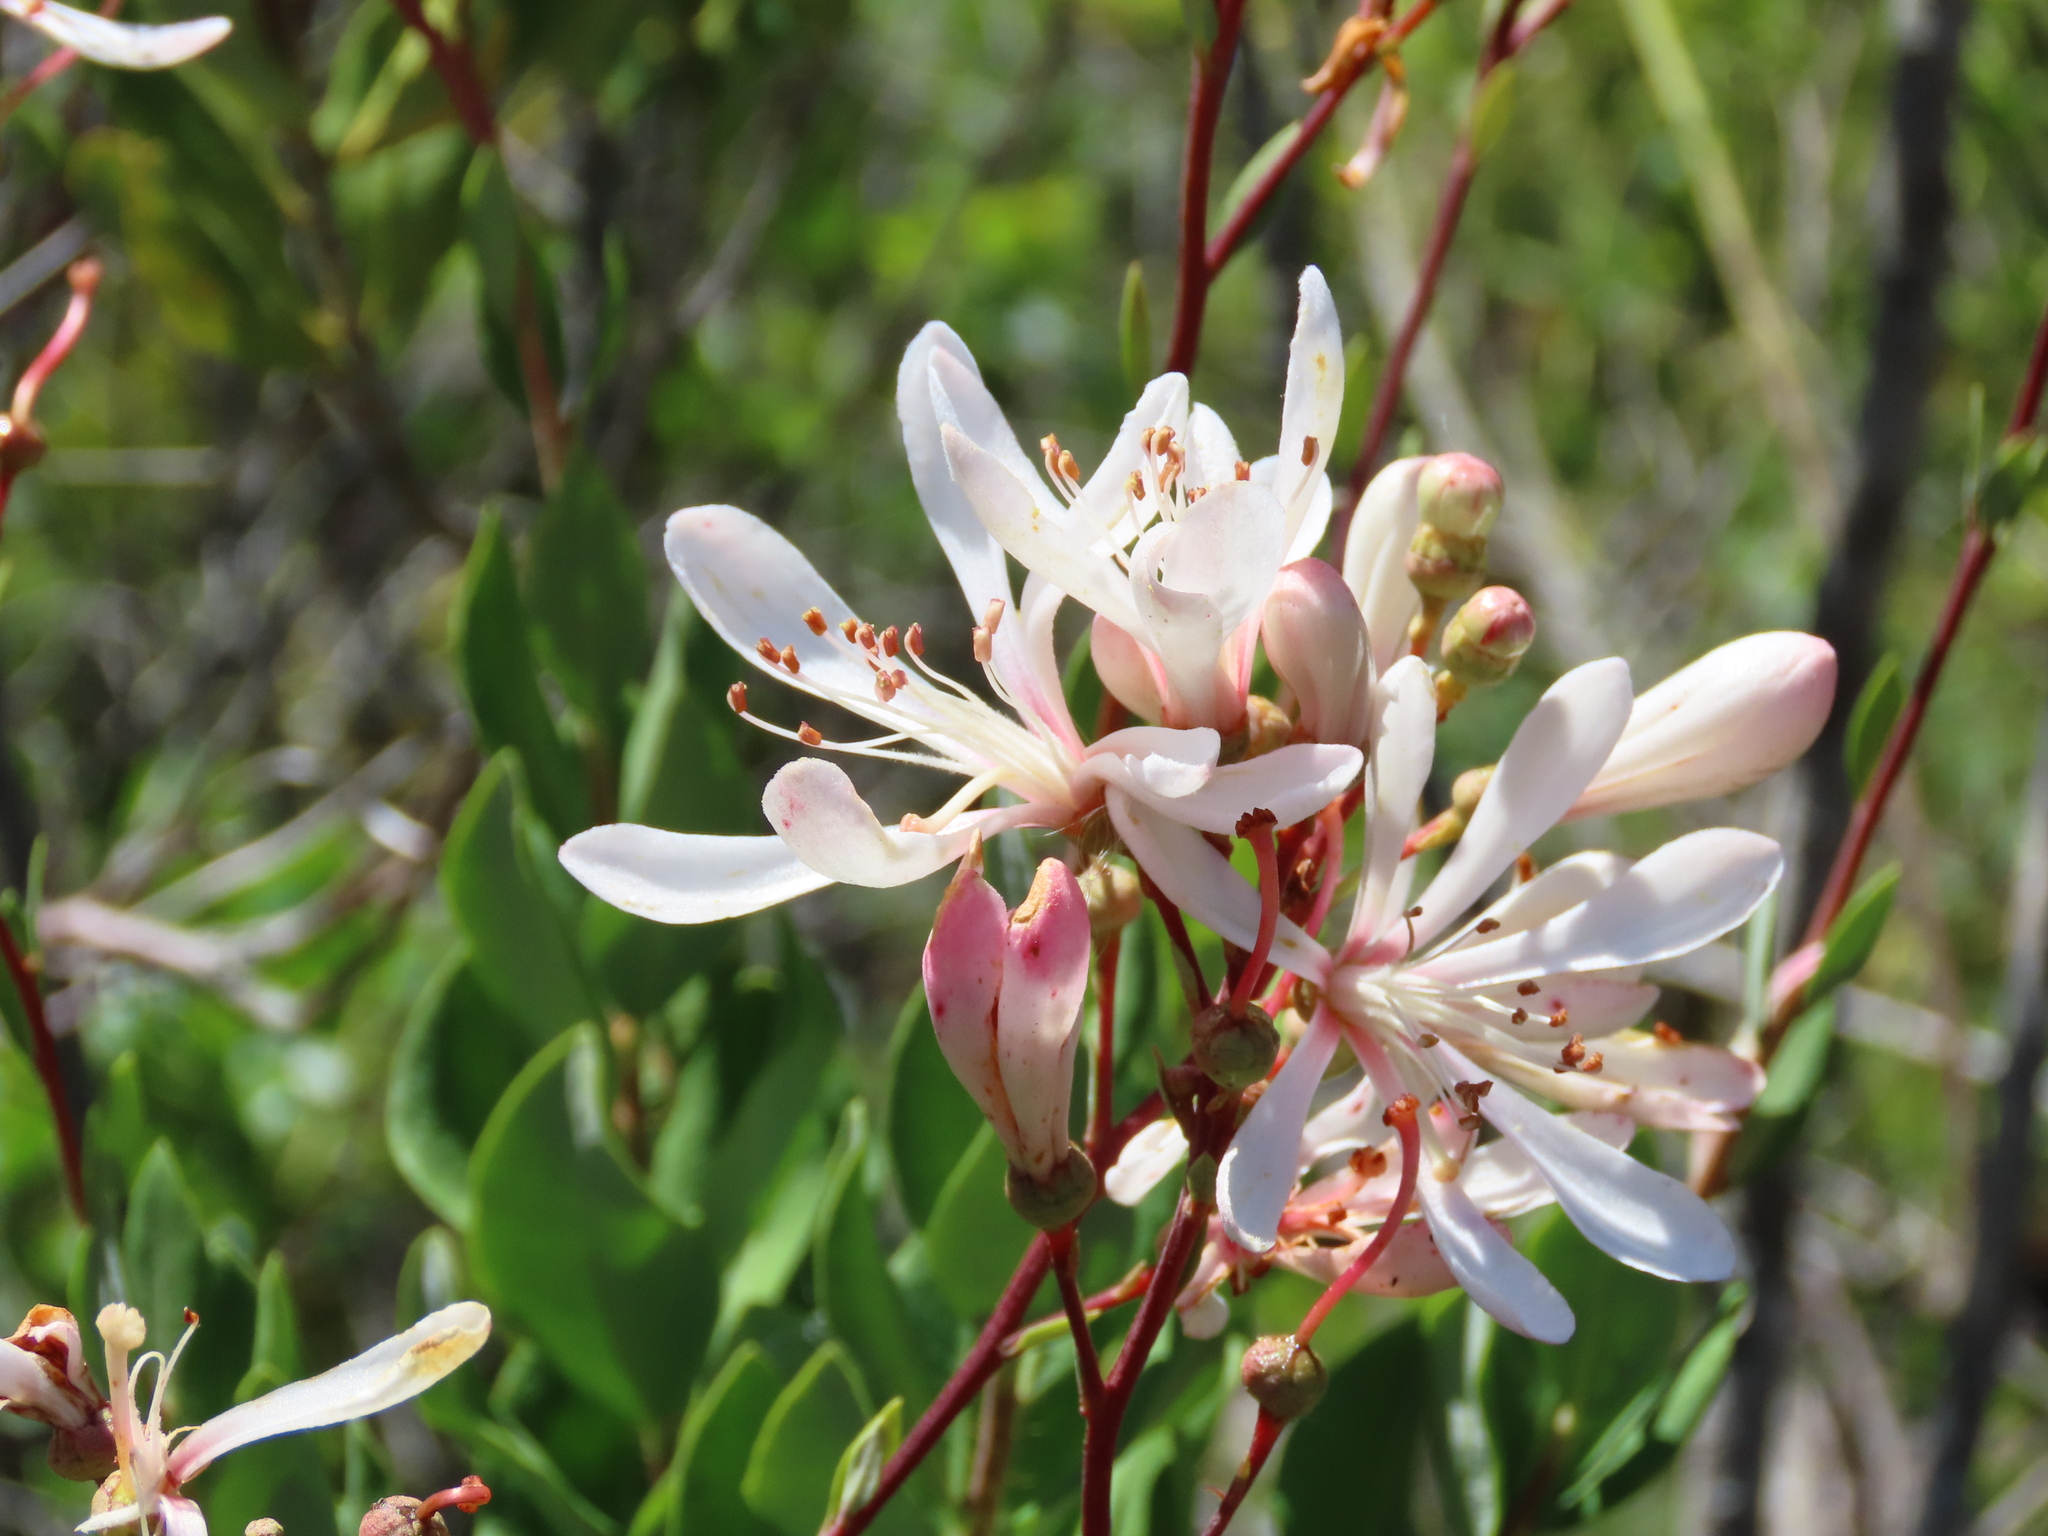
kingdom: Plantae
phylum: Tracheophyta
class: Magnoliopsida
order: Ericales
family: Ericaceae
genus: Bejaria
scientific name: Bejaria racemosa
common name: Tarflower
